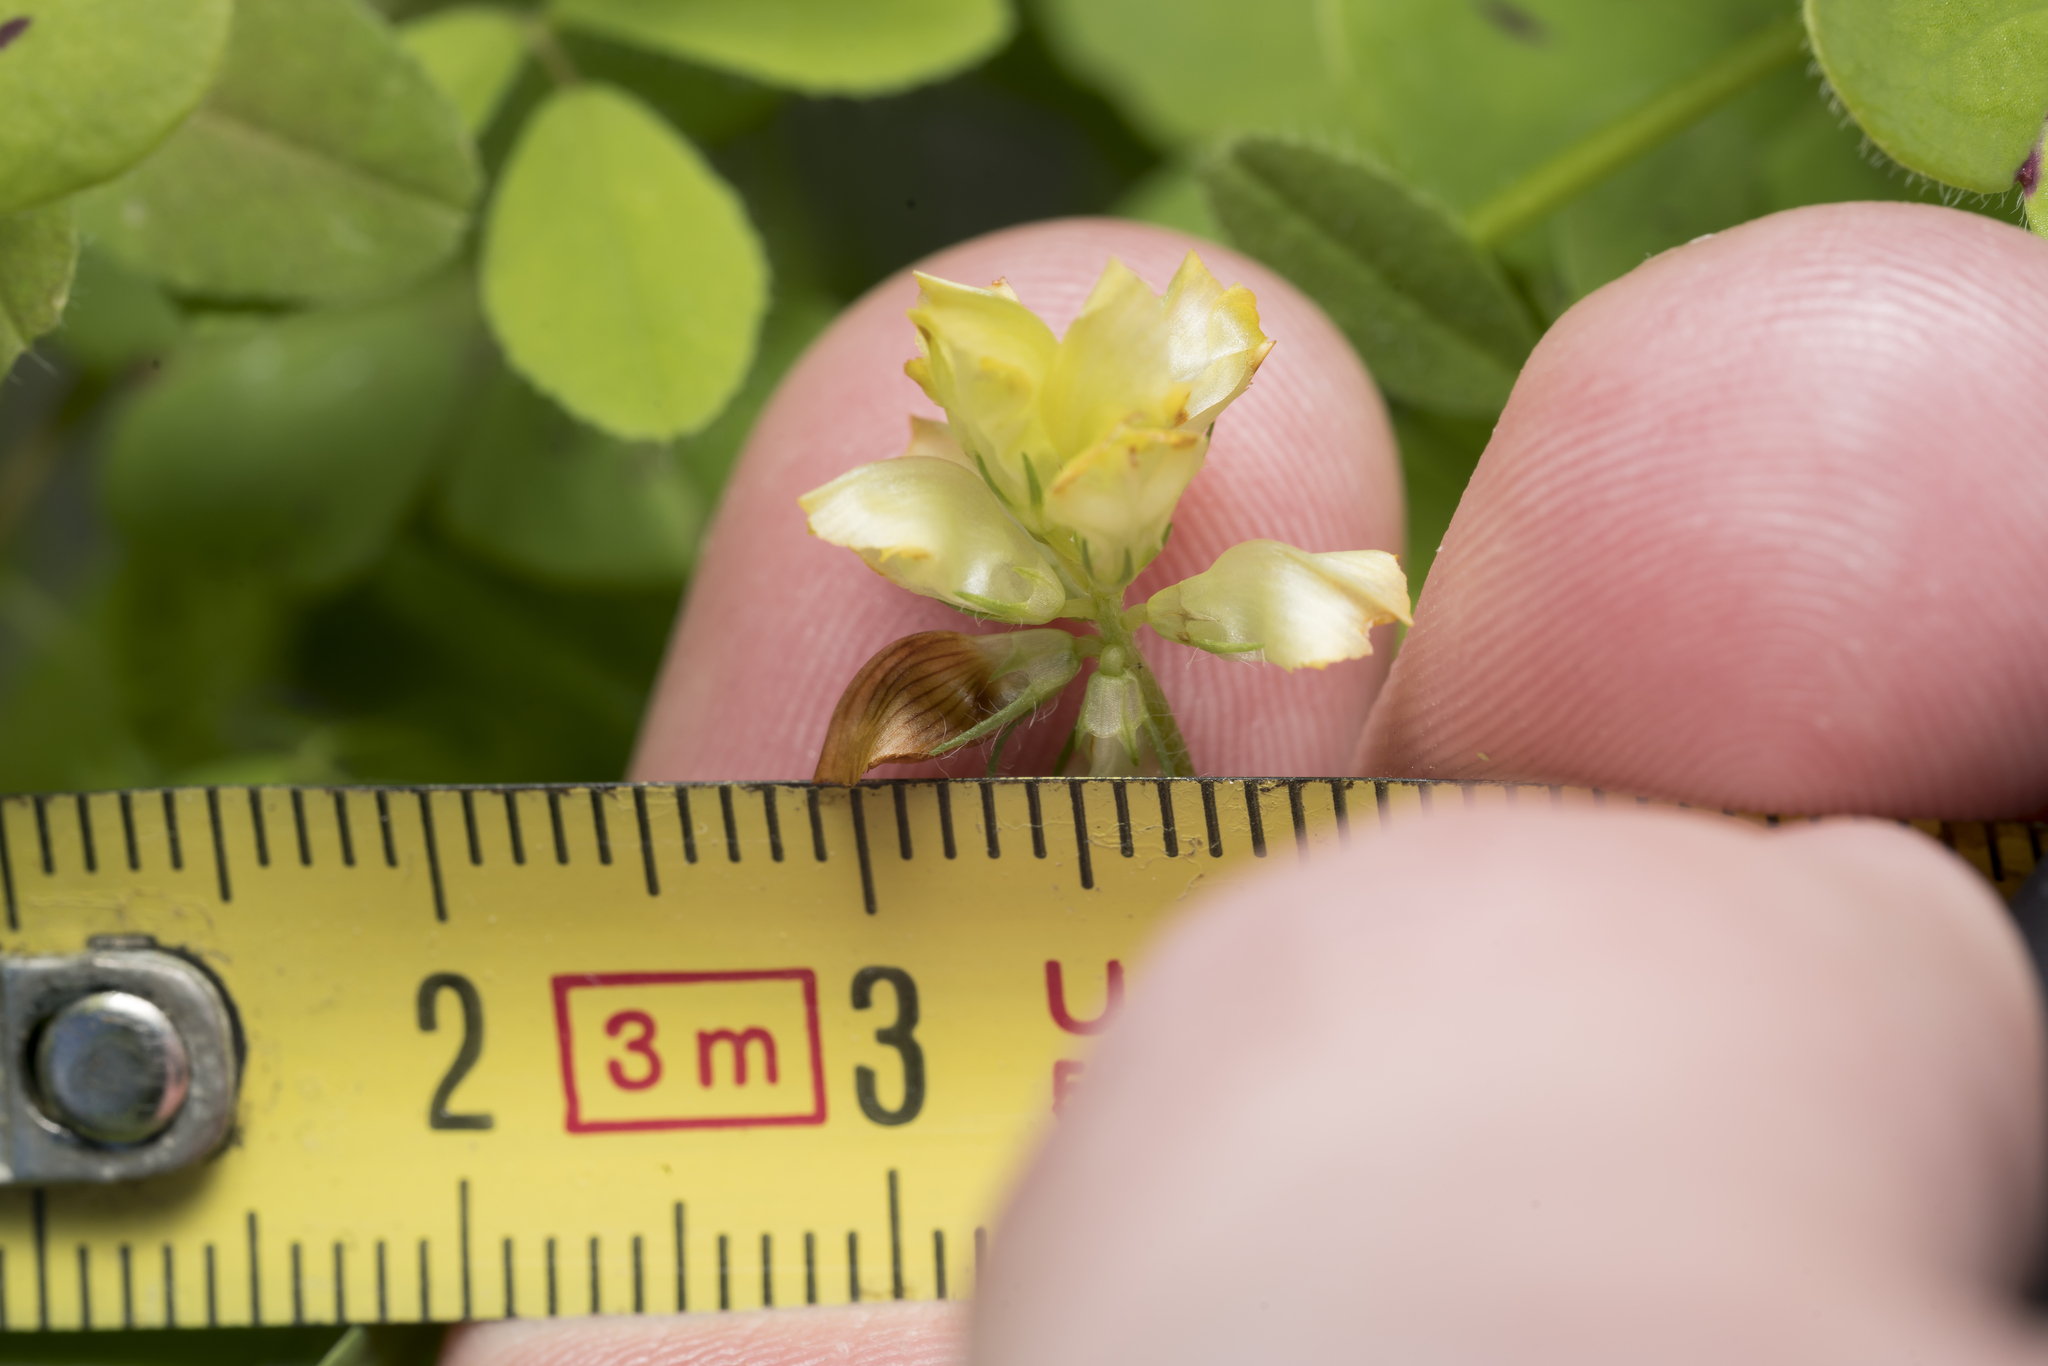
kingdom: Plantae
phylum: Tracheophyta
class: Magnoliopsida
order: Fabales
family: Fabaceae
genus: Trifolium
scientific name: Trifolium boissieri
